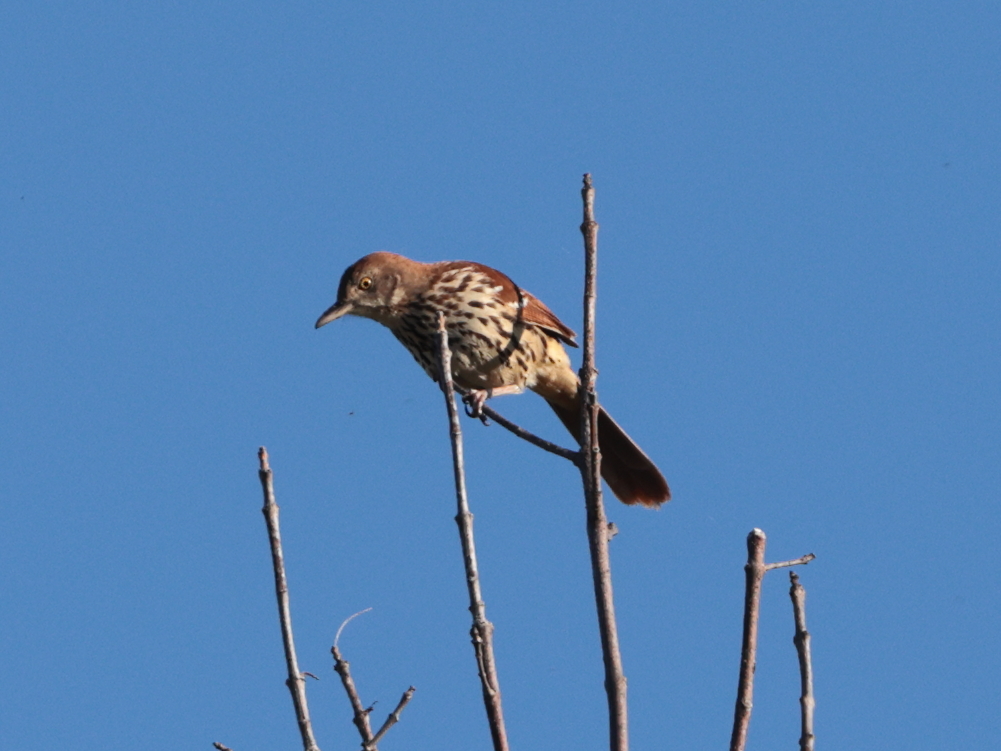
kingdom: Animalia
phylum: Chordata
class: Aves
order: Passeriformes
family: Mimidae
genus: Toxostoma
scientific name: Toxostoma rufum
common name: Brown thrasher
